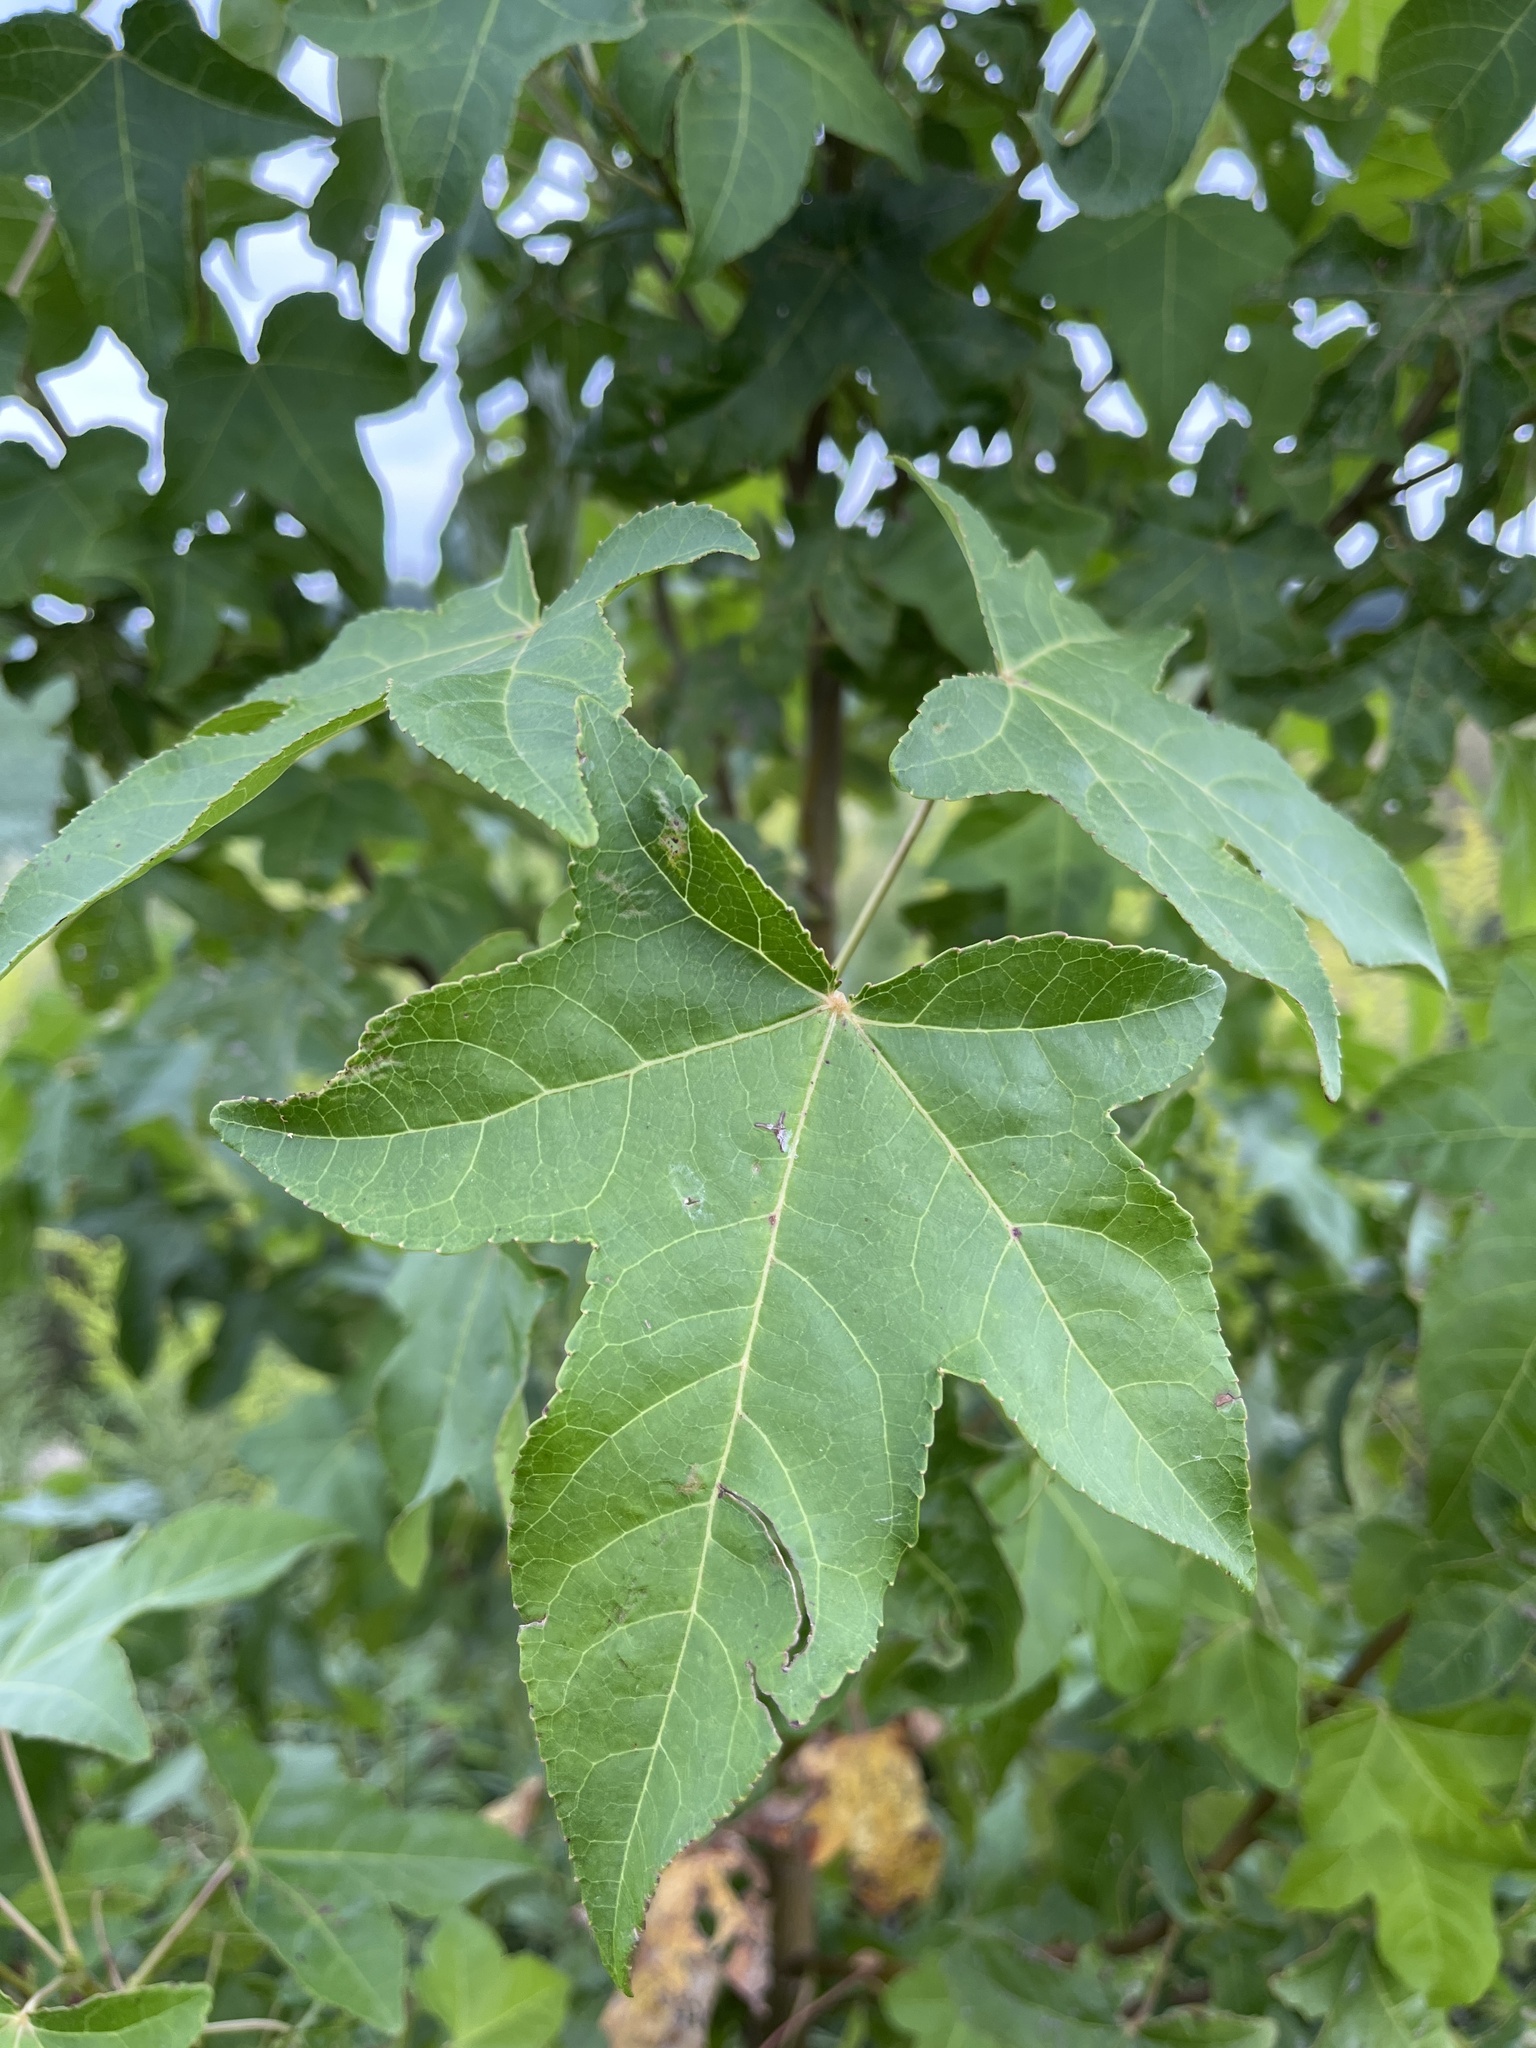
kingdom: Plantae
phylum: Tracheophyta
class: Magnoliopsida
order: Saxifragales
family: Altingiaceae
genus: Liquidambar
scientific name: Liquidambar styraciflua
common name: Sweet gum
